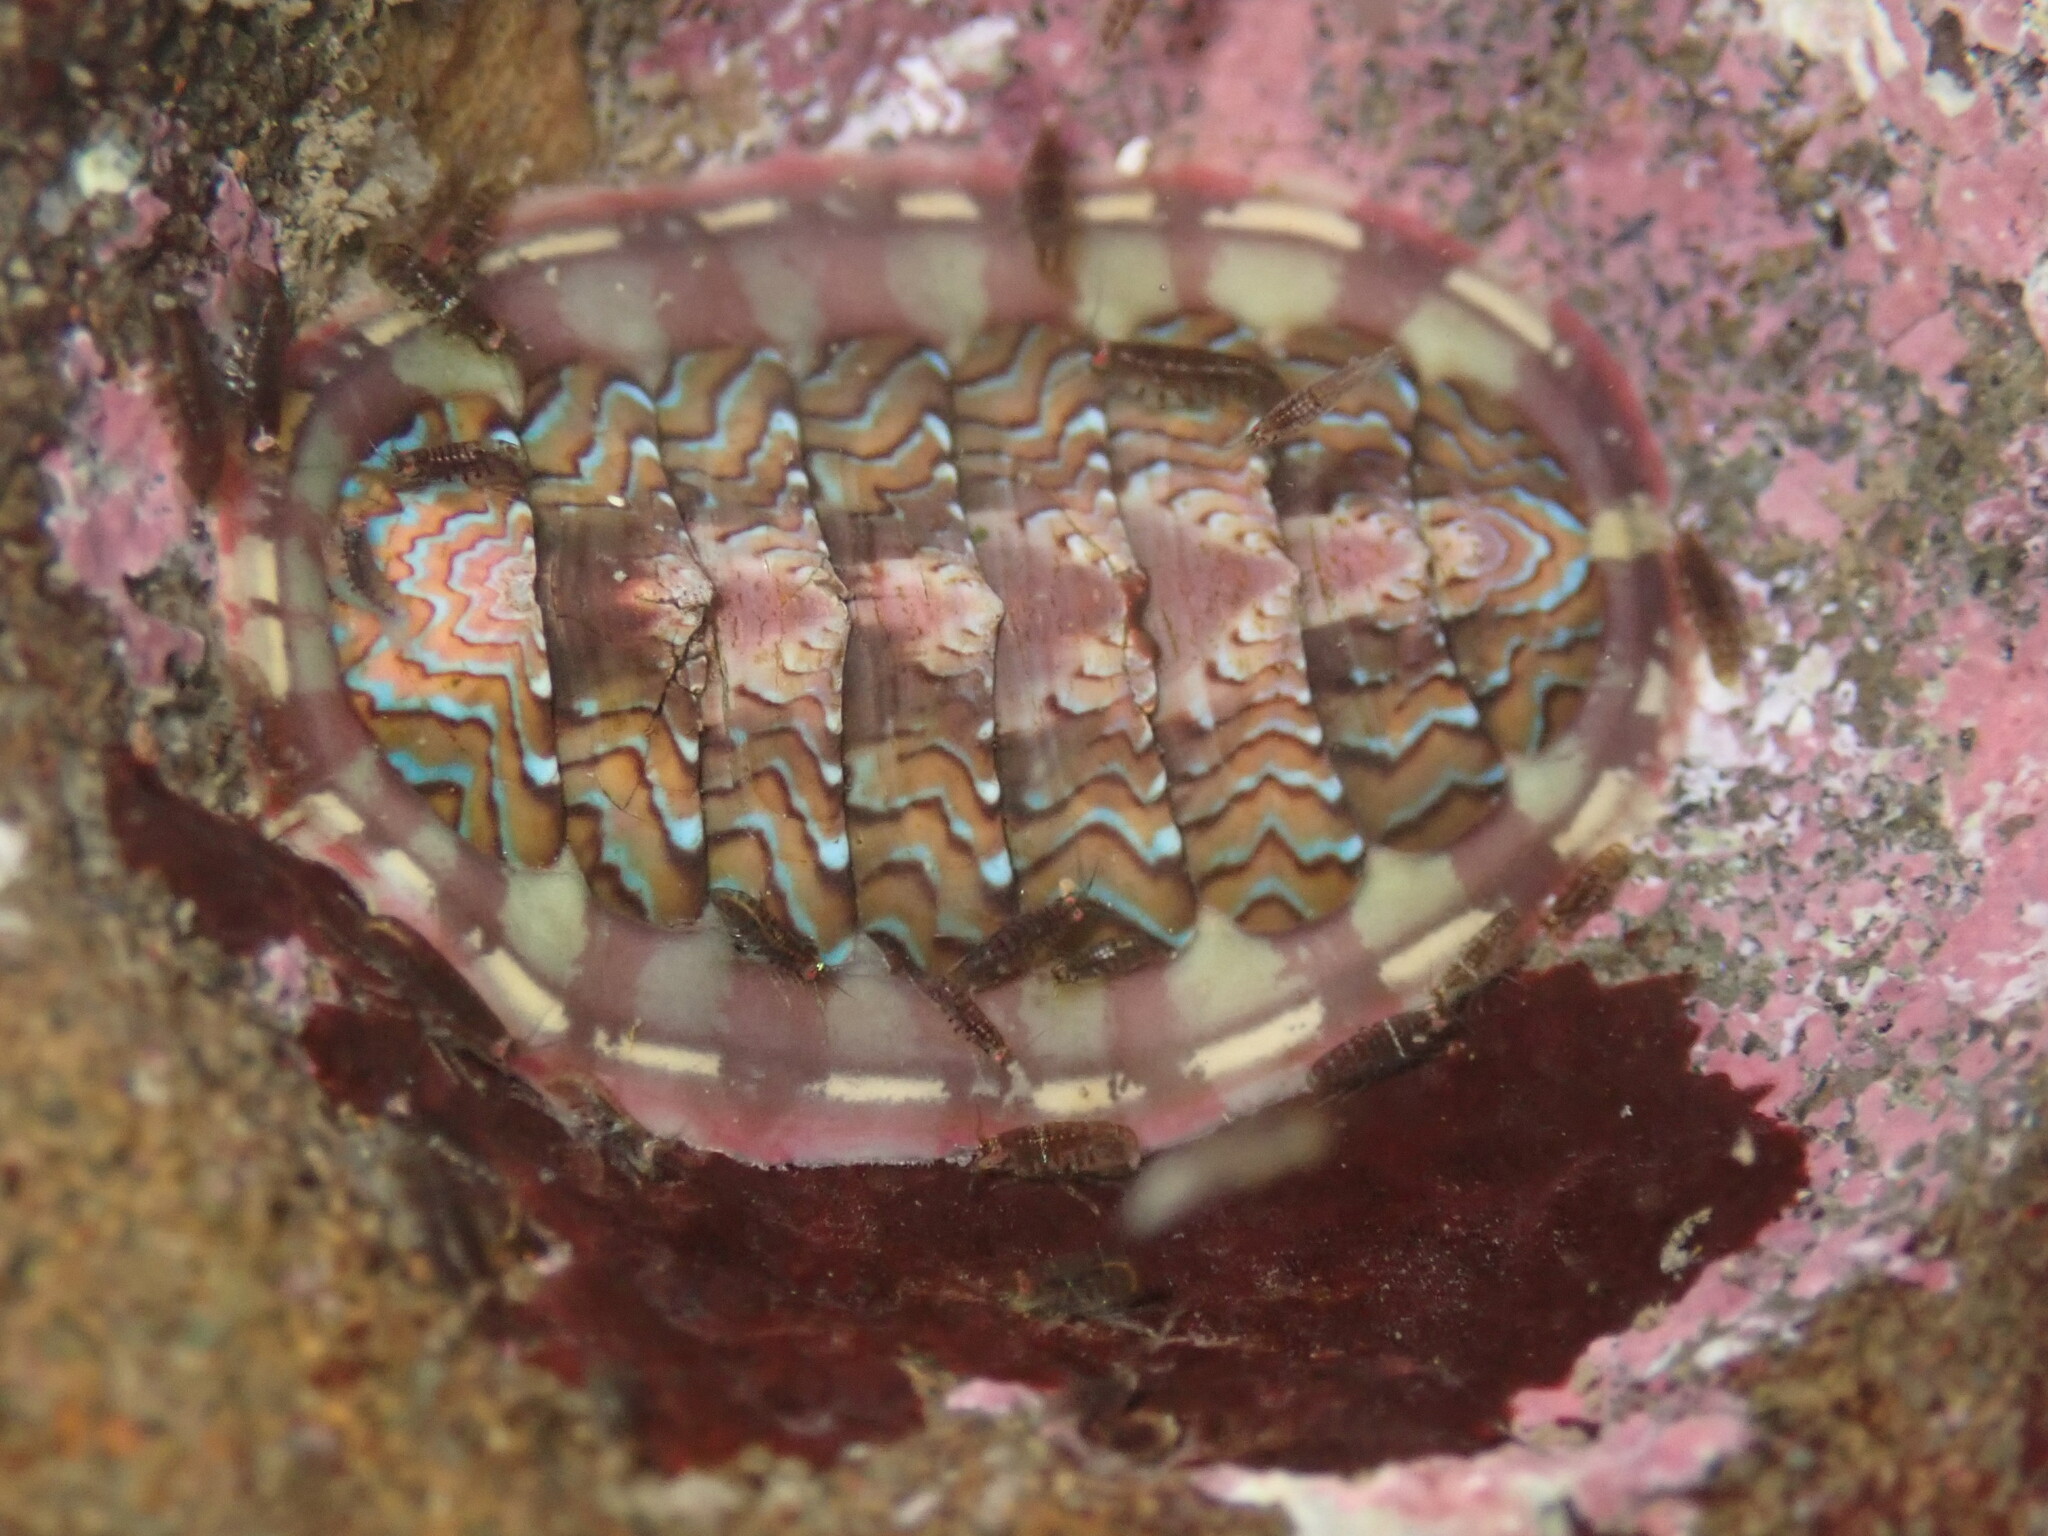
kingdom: Animalia
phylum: Mollusca
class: Polyplacophora
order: Chitonida
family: Tonicellidae
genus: Tonicella
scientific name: Tonicella lokii
